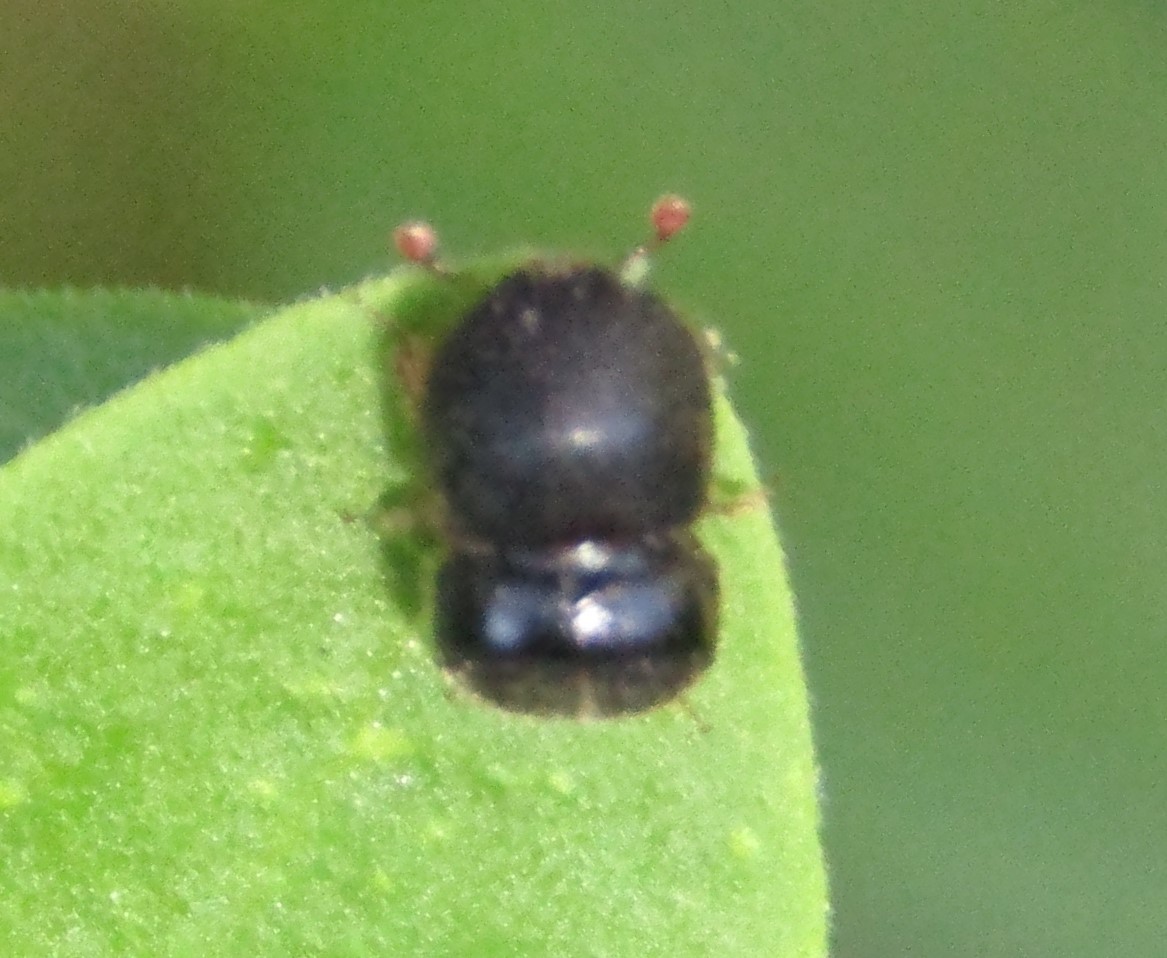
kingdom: Animalia
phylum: Arthropoda
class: Insecta
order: Coleoptera
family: Curculionidae
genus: Cnestus
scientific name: Cnestus mutilatus
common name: Camphor shot borer
